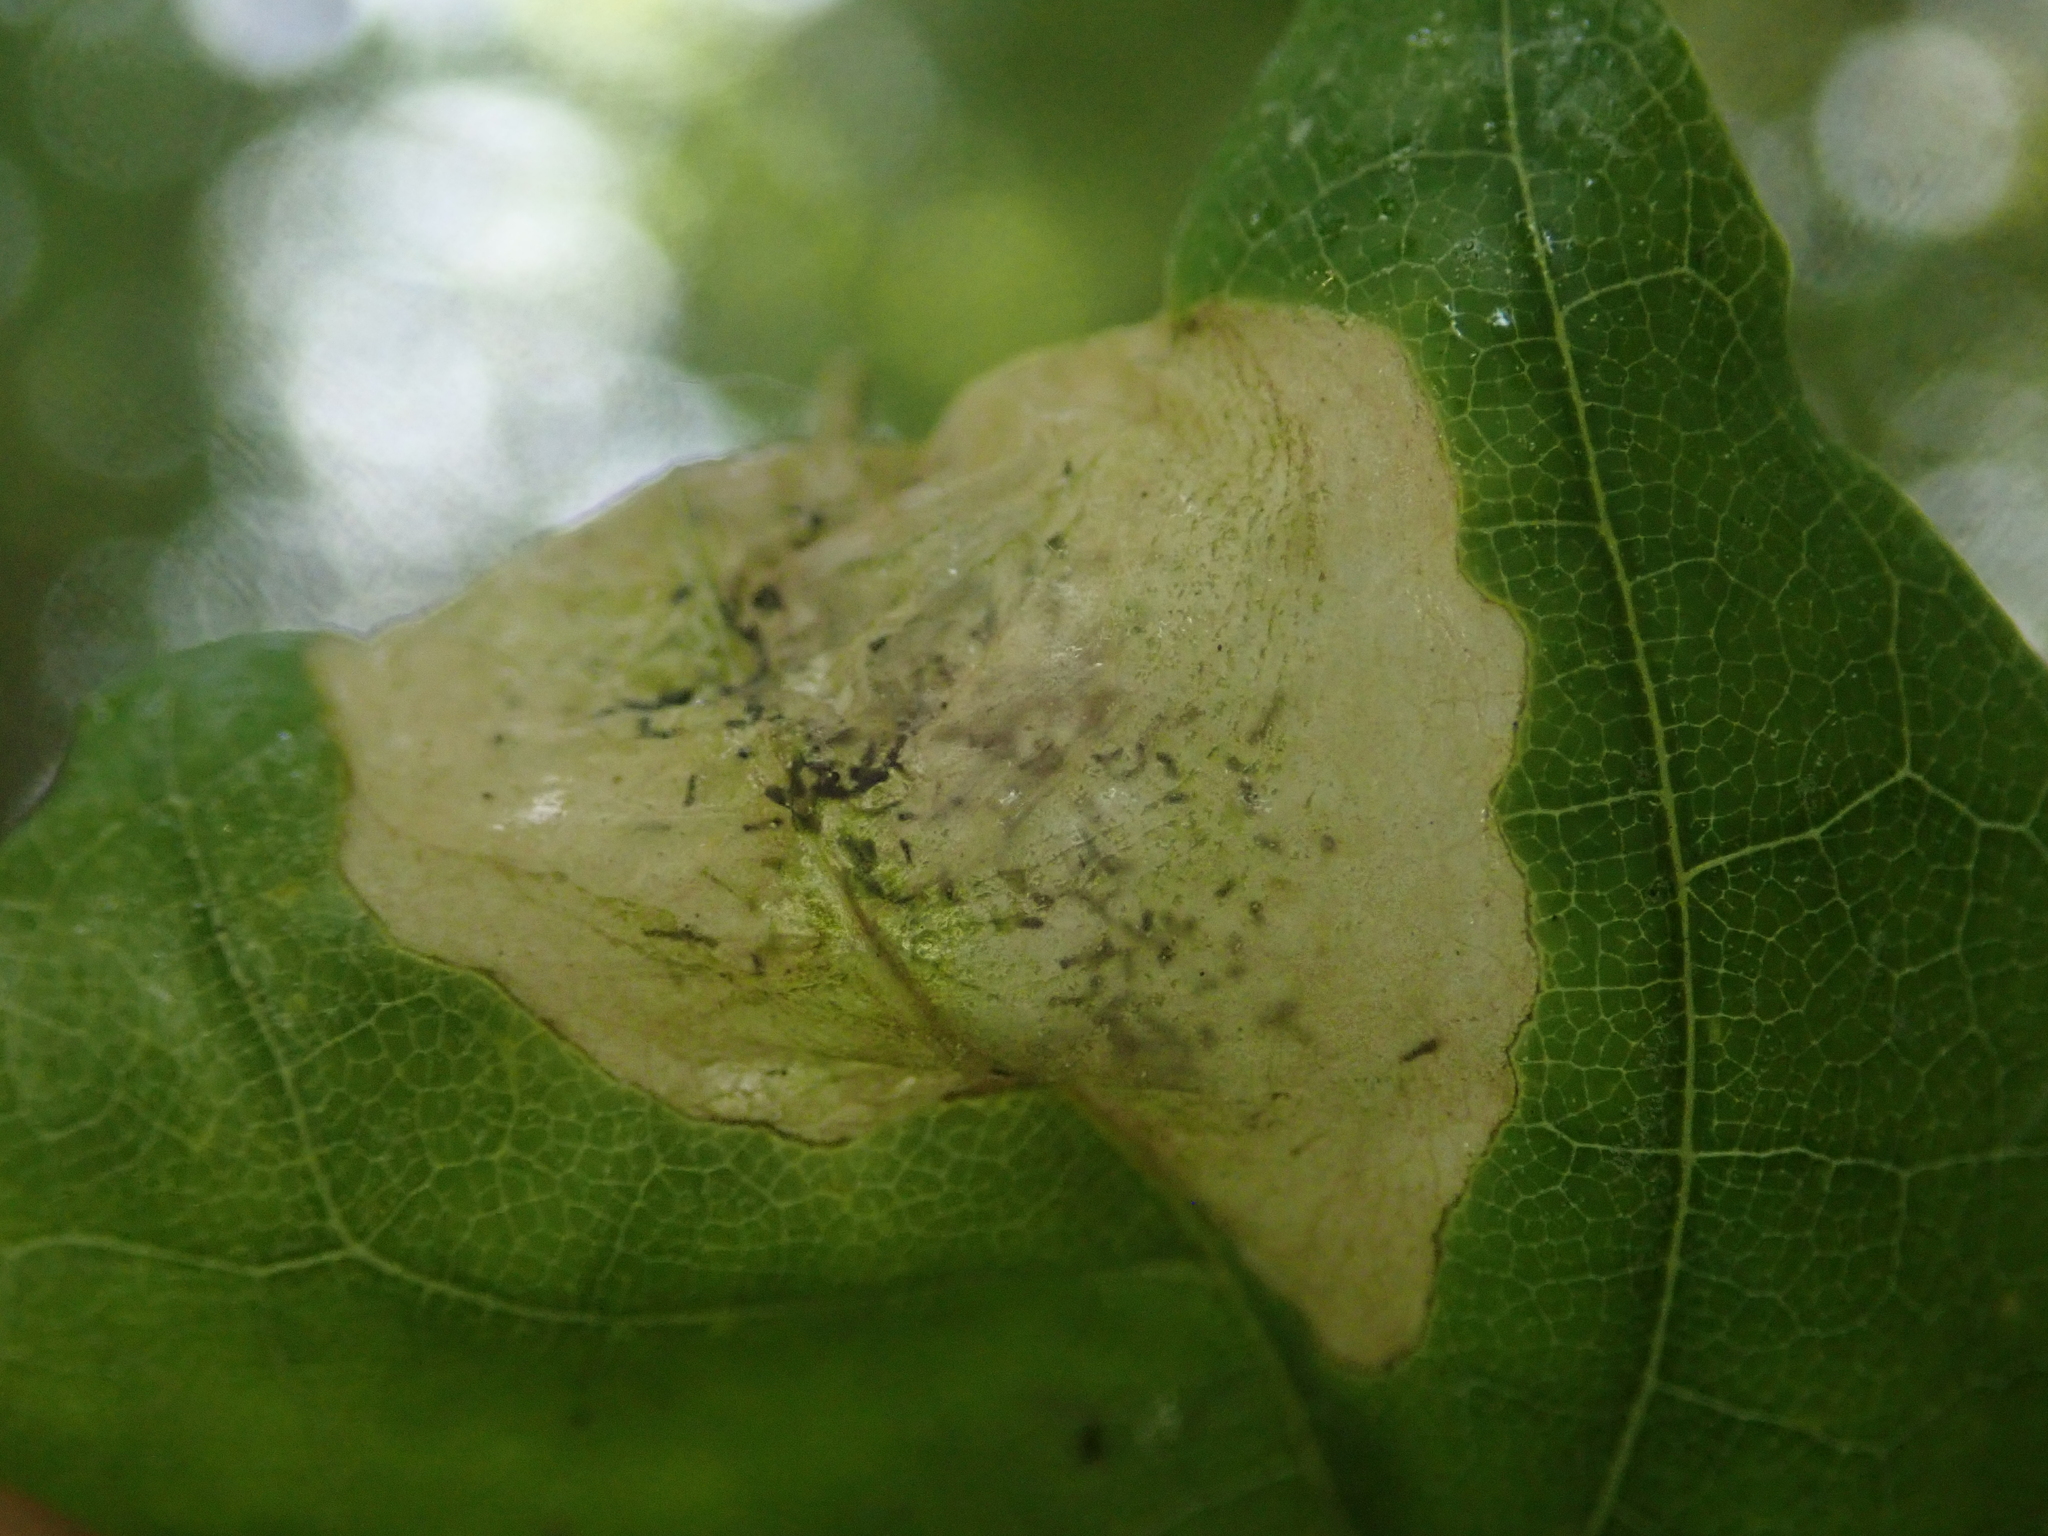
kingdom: Animalia
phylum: Arthropoda
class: Insecta
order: Hymenoptera
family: Tenthredinidae
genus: Hinatara
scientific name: Hinatara recta
